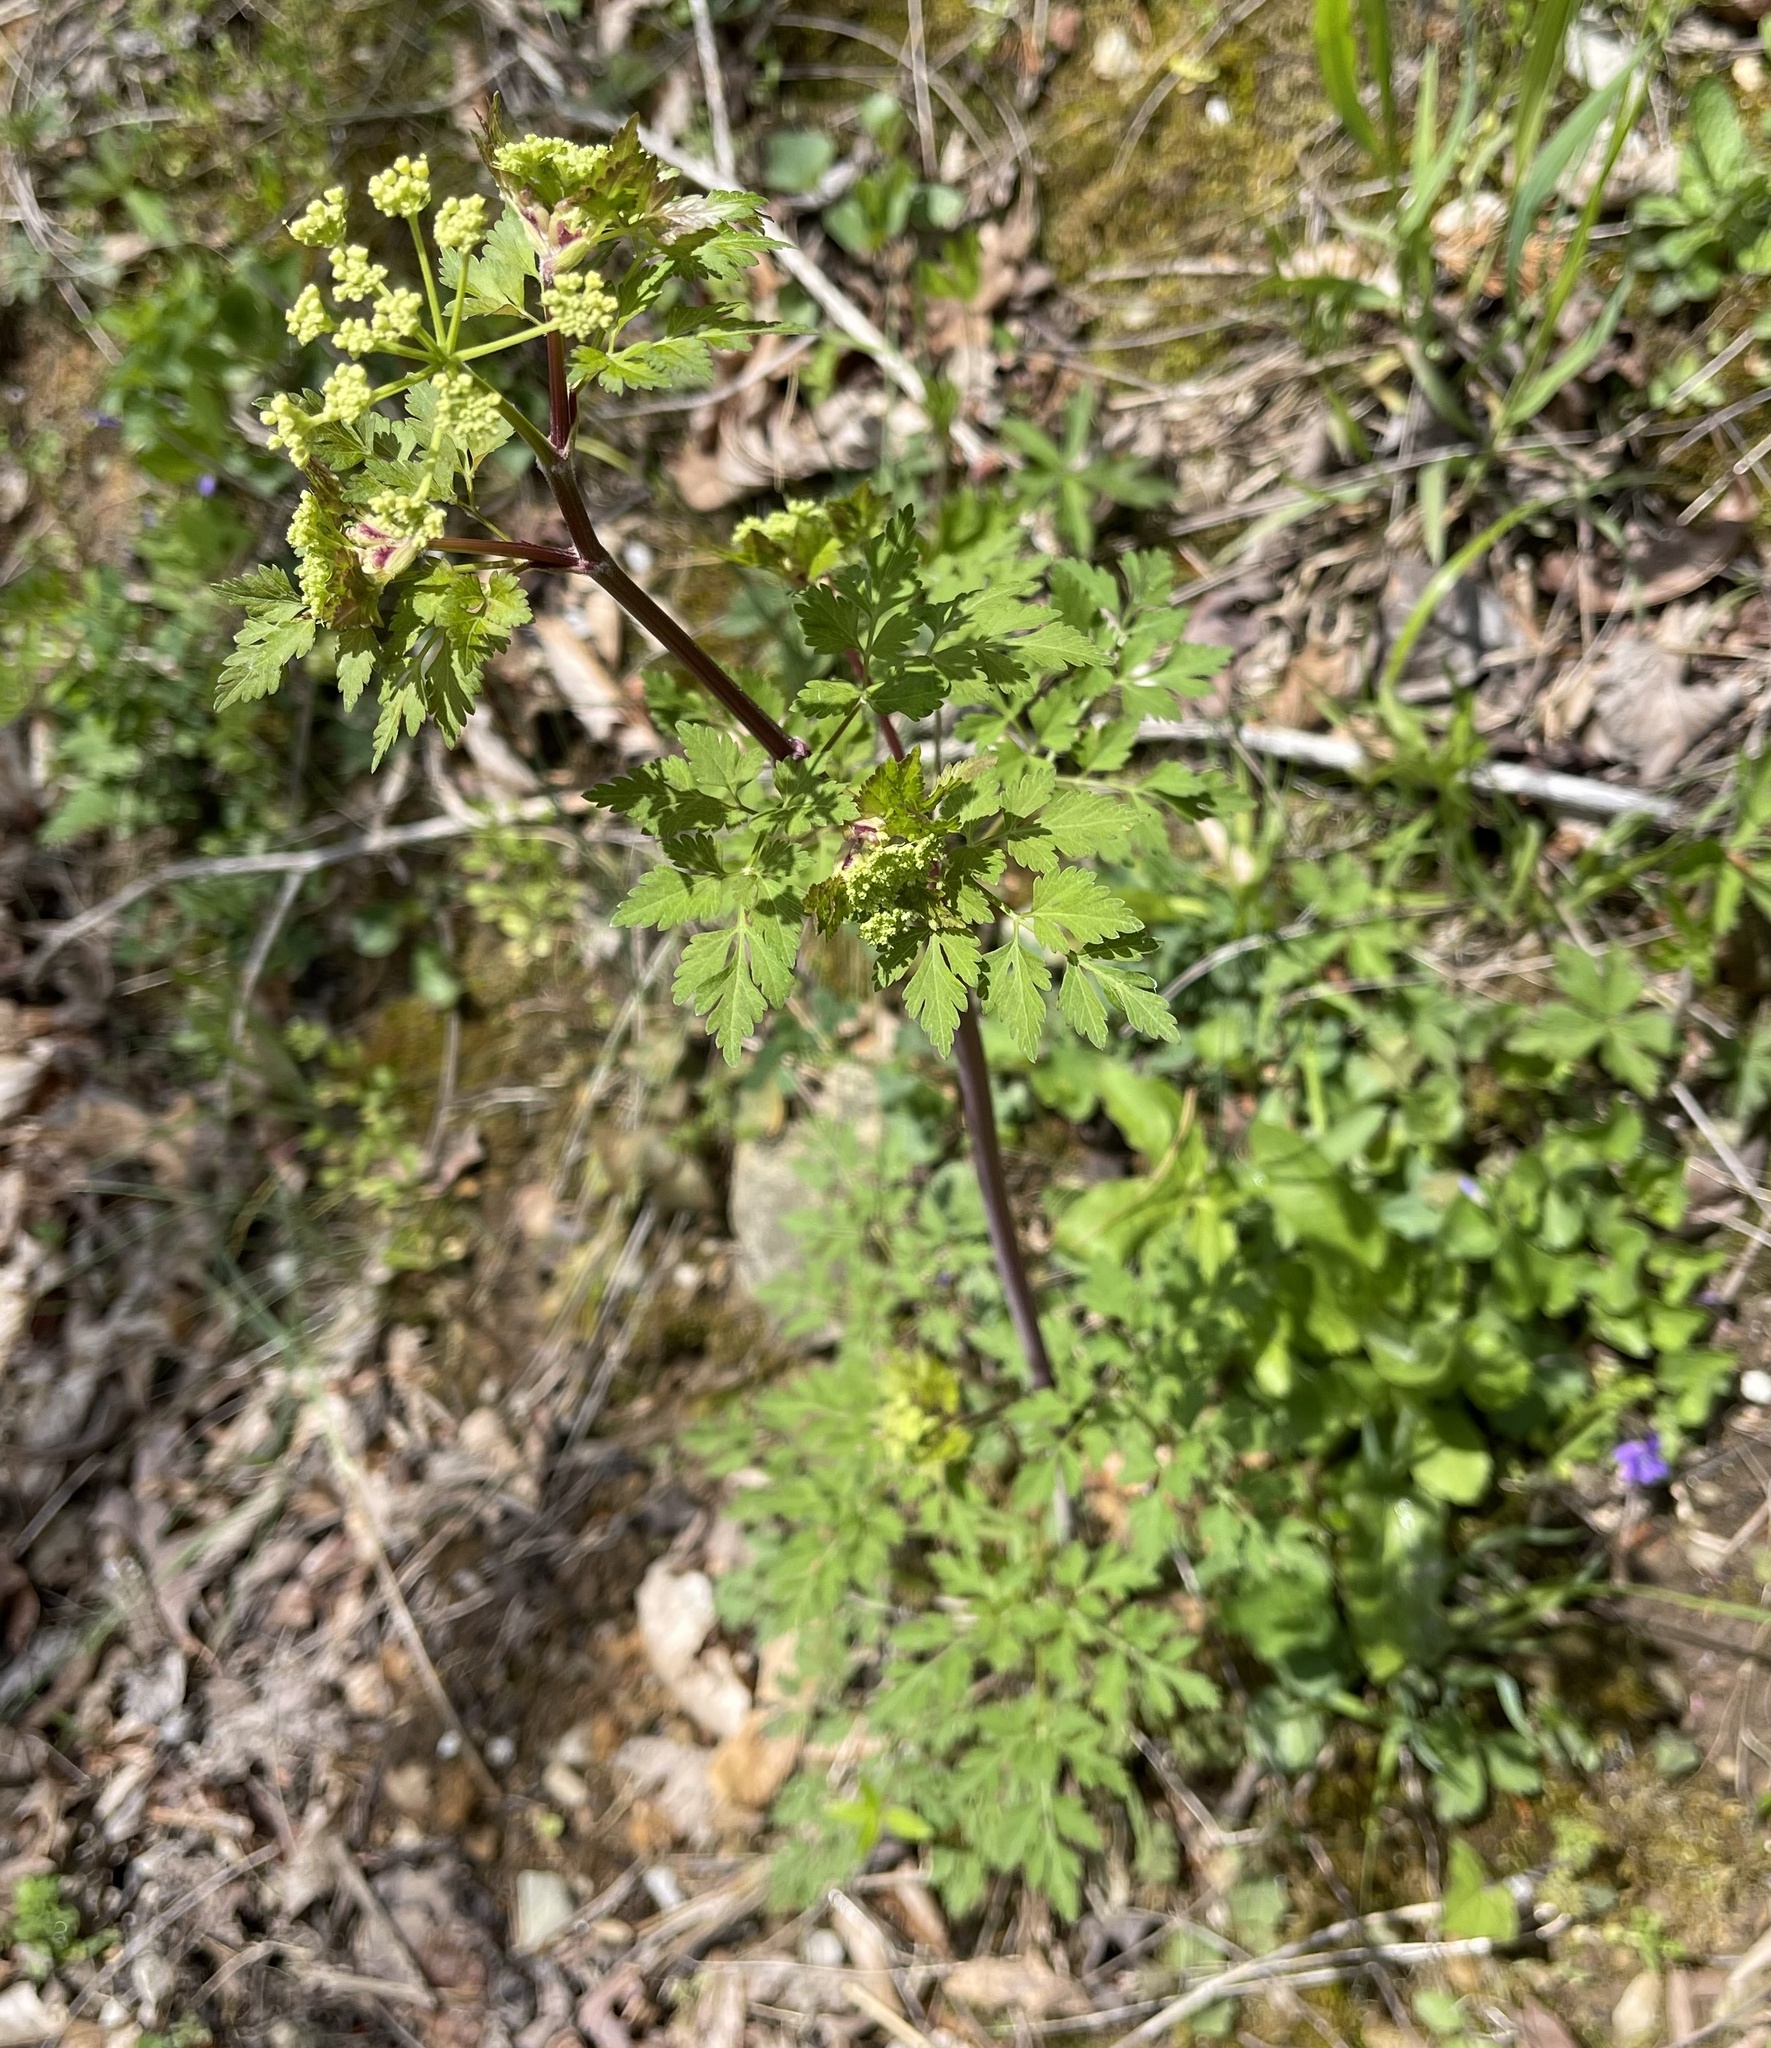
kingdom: Plantae
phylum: Tracheophyta
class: Magnoliopsida
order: Apiales
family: Apiaceae
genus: Thaspium
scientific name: Thaspium barbinode
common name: Bearded meadow-parsnip
